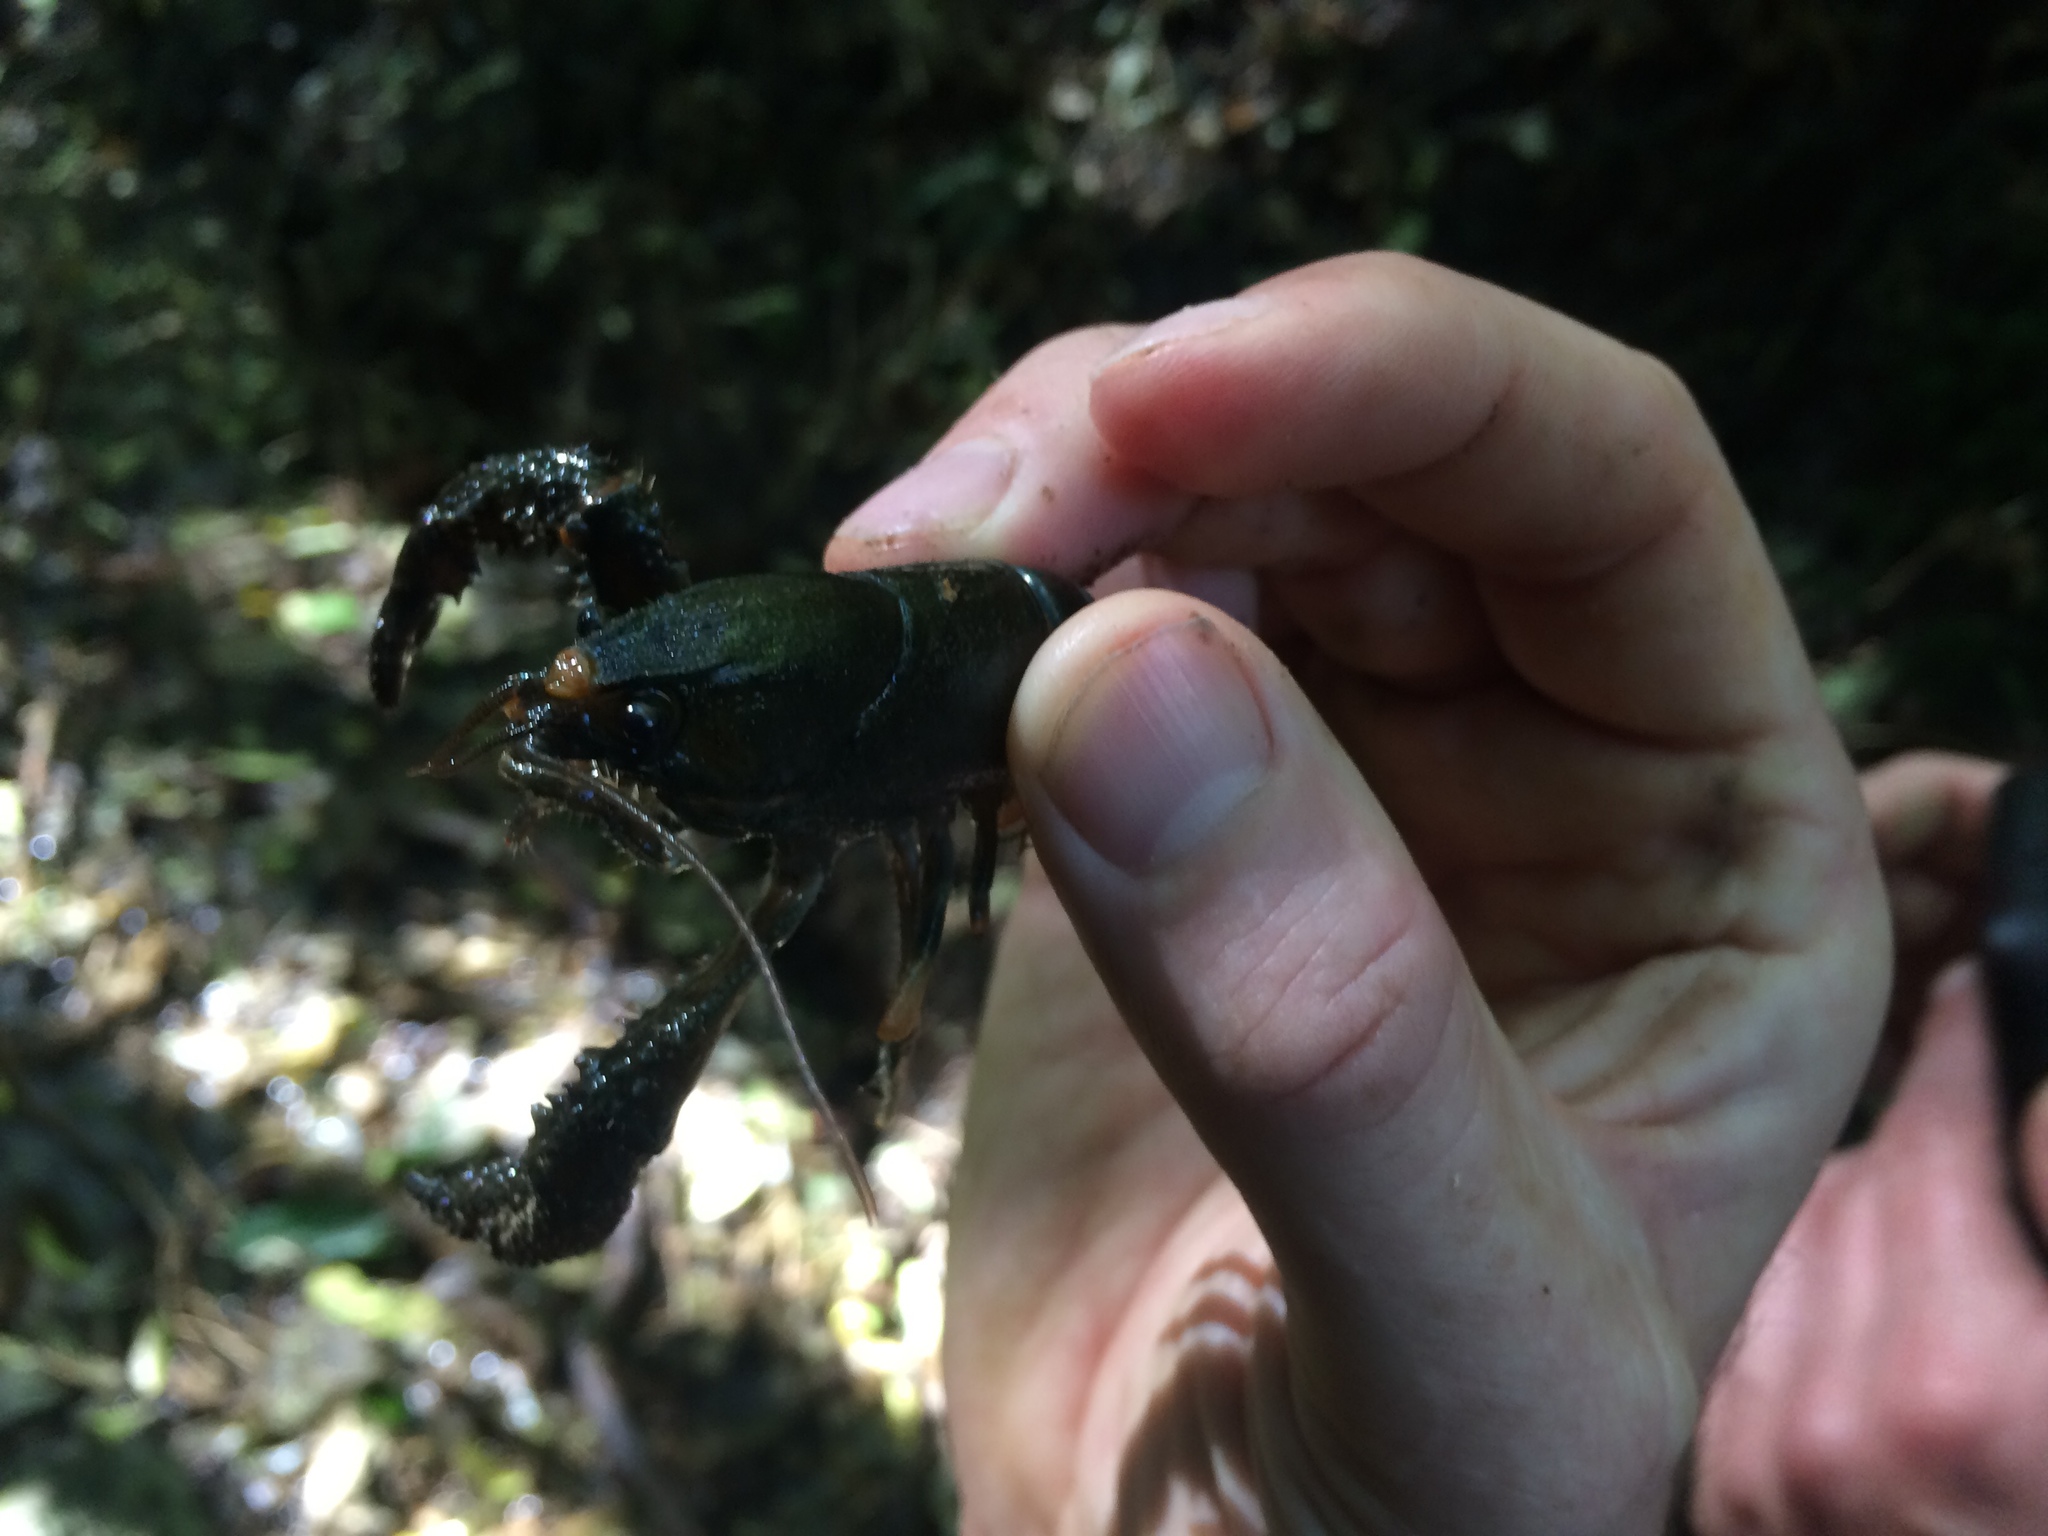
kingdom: Animalia
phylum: Arthropoda
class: Malacostraca
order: Decapoda
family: Parastacidae
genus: Paranephrops
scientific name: Paranephrops planifrons
